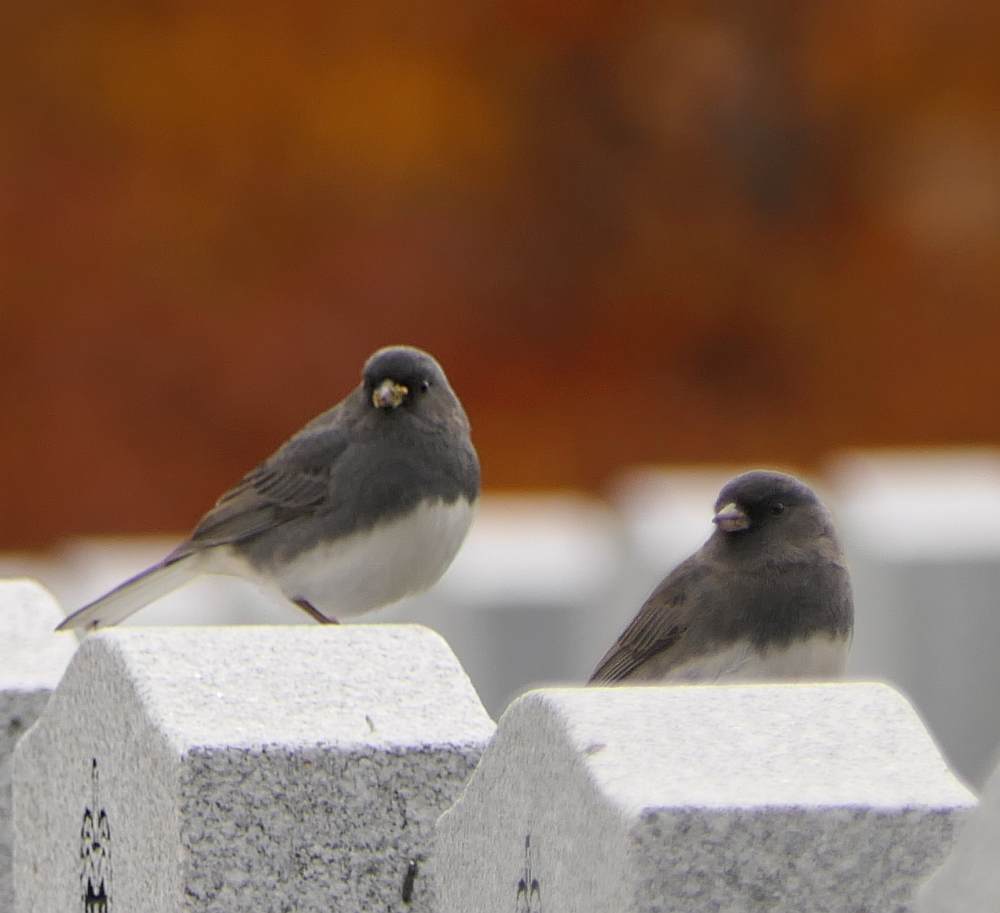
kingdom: Animalia
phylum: Chordata
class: Aves
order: Passeriformes
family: Passerellidae
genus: Junco
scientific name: Junco hyemalis
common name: Dark-eyed junco
